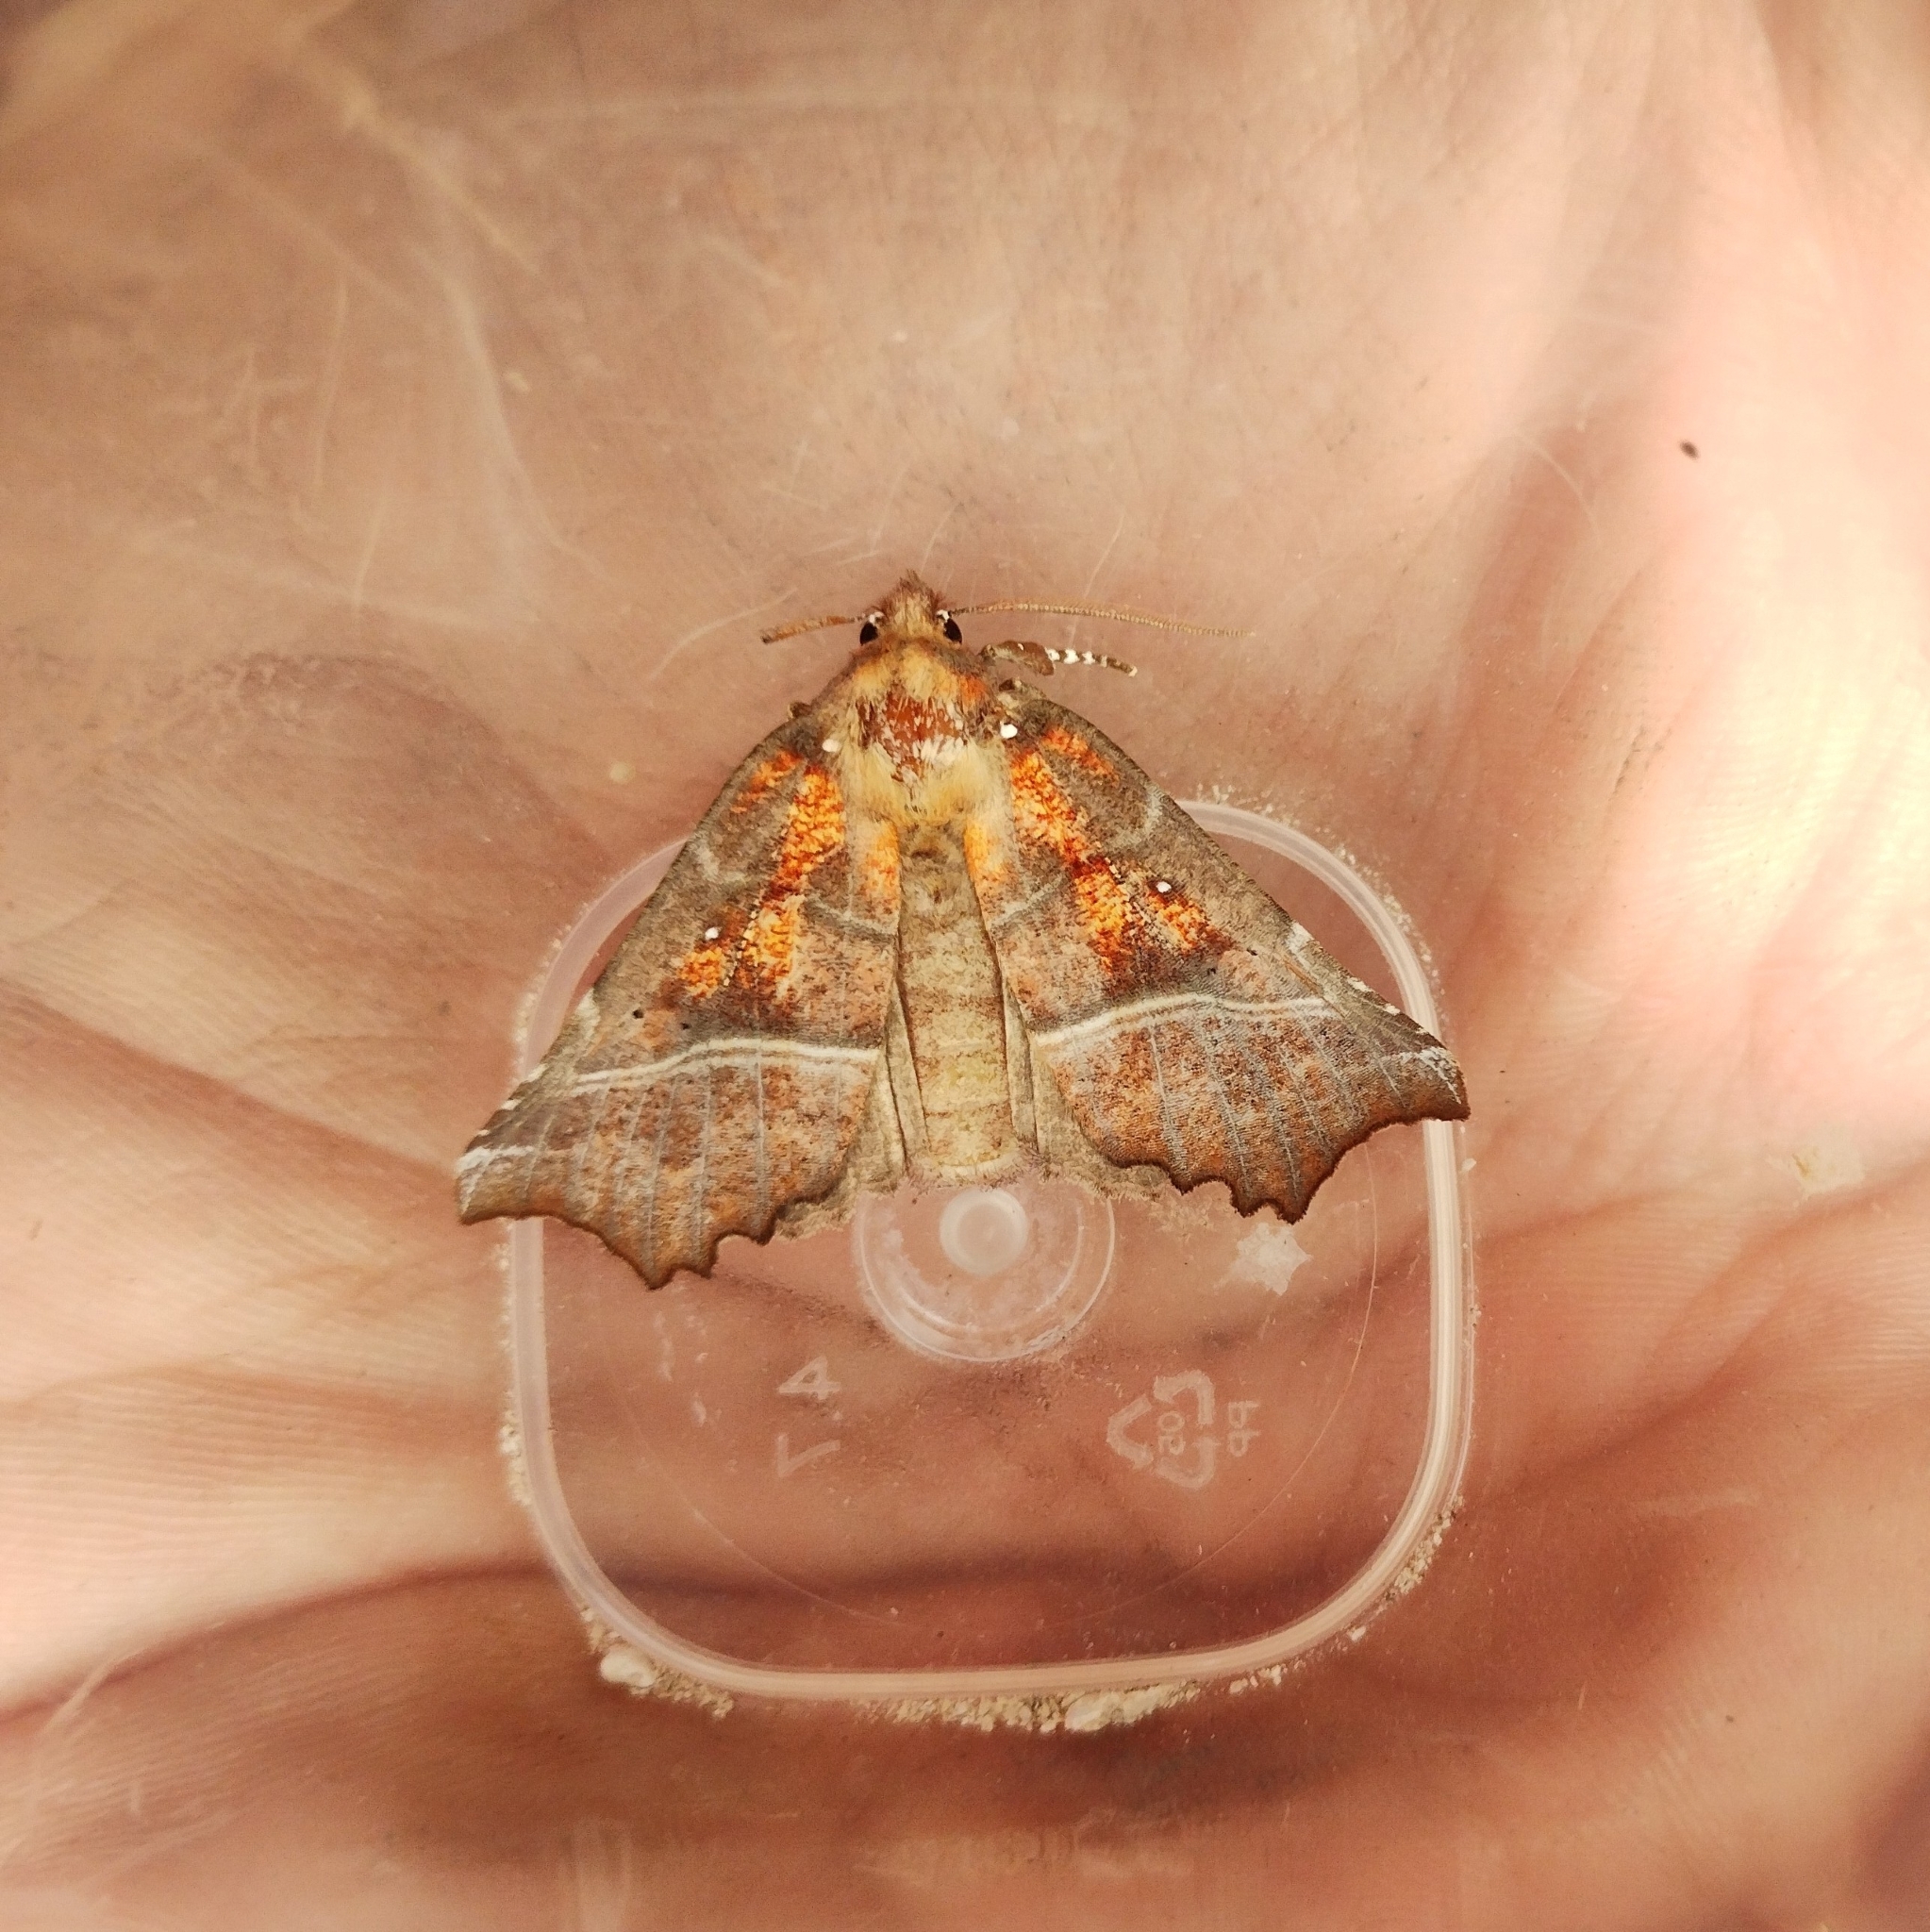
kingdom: Animalia
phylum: Arthropoda
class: Insecta
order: Lepidoptera
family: Erebidae
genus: Scoliopteryx
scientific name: Scoliopteryx libatrix
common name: Herald
